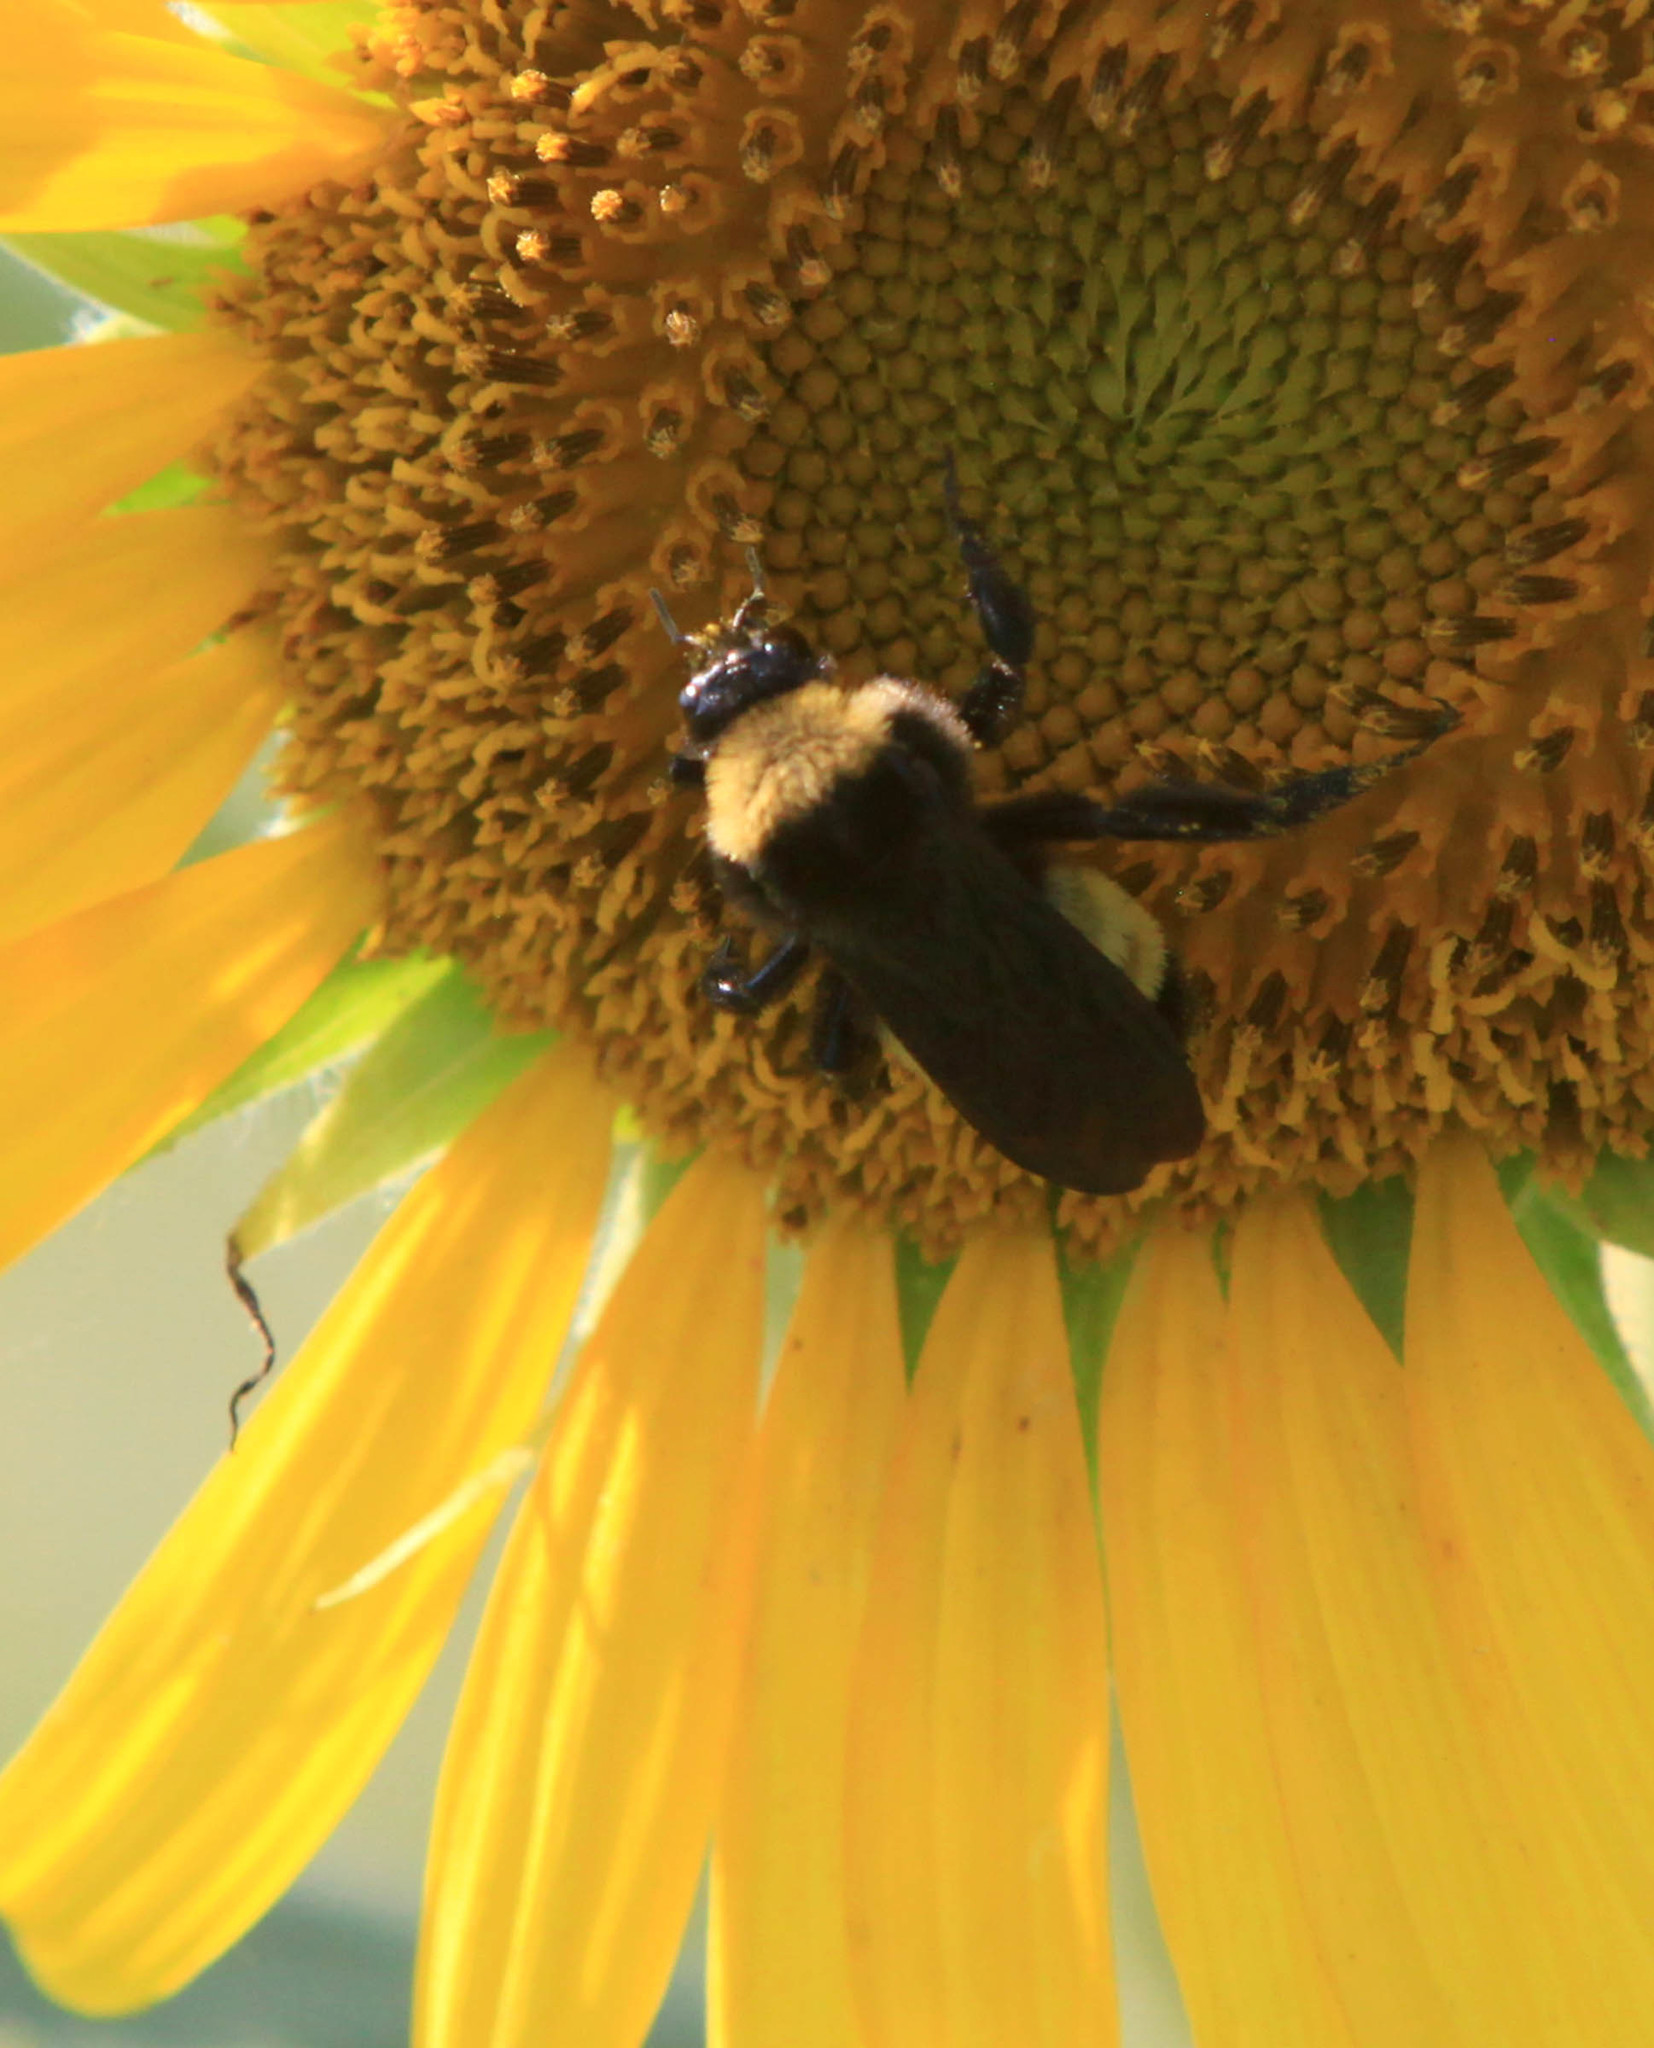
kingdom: Animalia
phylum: Arthropoda
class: Insecta
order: Hymenoptera
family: Apidae
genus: Bombus
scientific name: Bombus pensylvanicus
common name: Bumble bee
